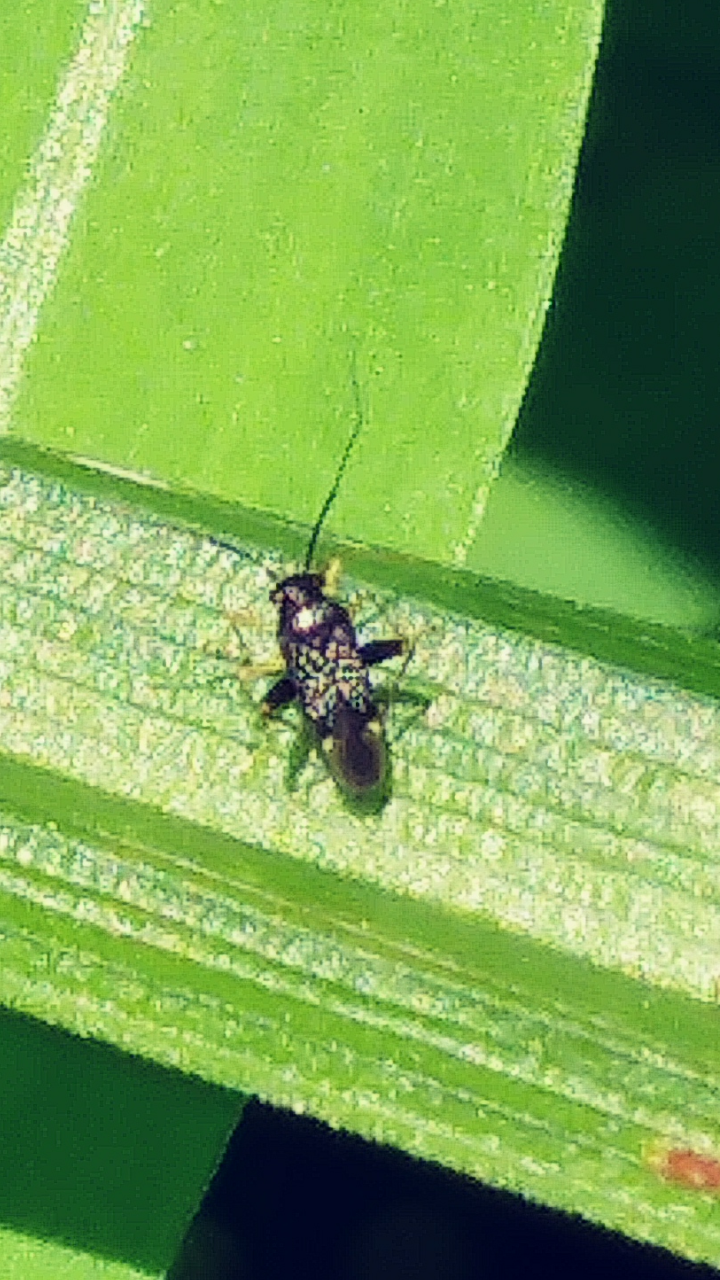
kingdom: Animalia
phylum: Arthropoda
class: Insecta
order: Hemiptera
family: Miridae
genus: Microtechnites
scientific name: Microtechnites bractatus
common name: Garden fleahopper
